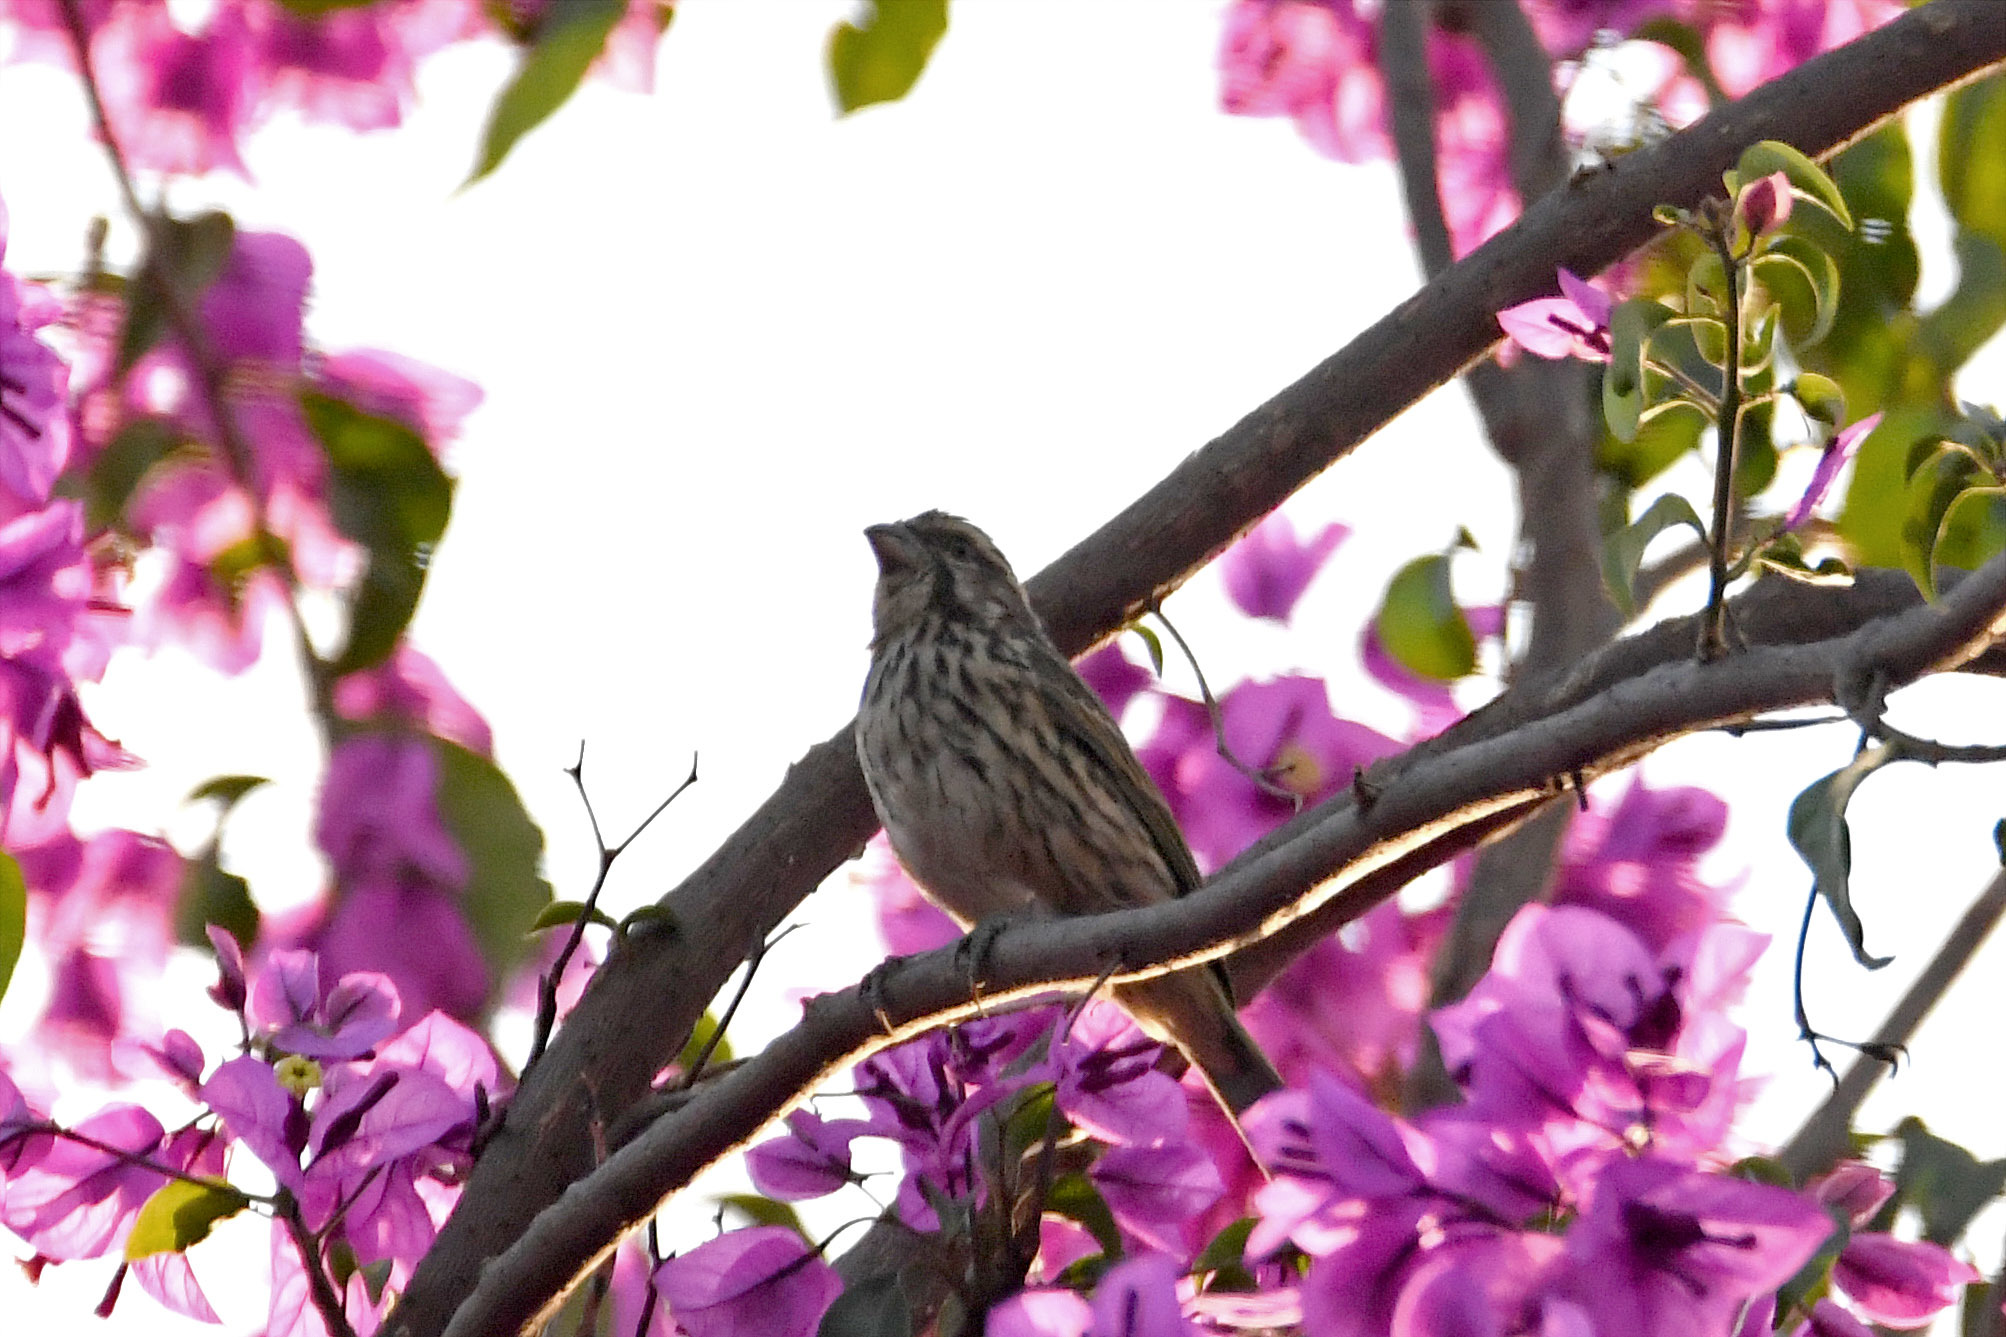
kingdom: Animalia
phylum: Chordata
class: Aves
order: Passeriformes
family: Fringillidae
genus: Crithagra
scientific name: Crithagra striolata
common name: Streaky seedeater
